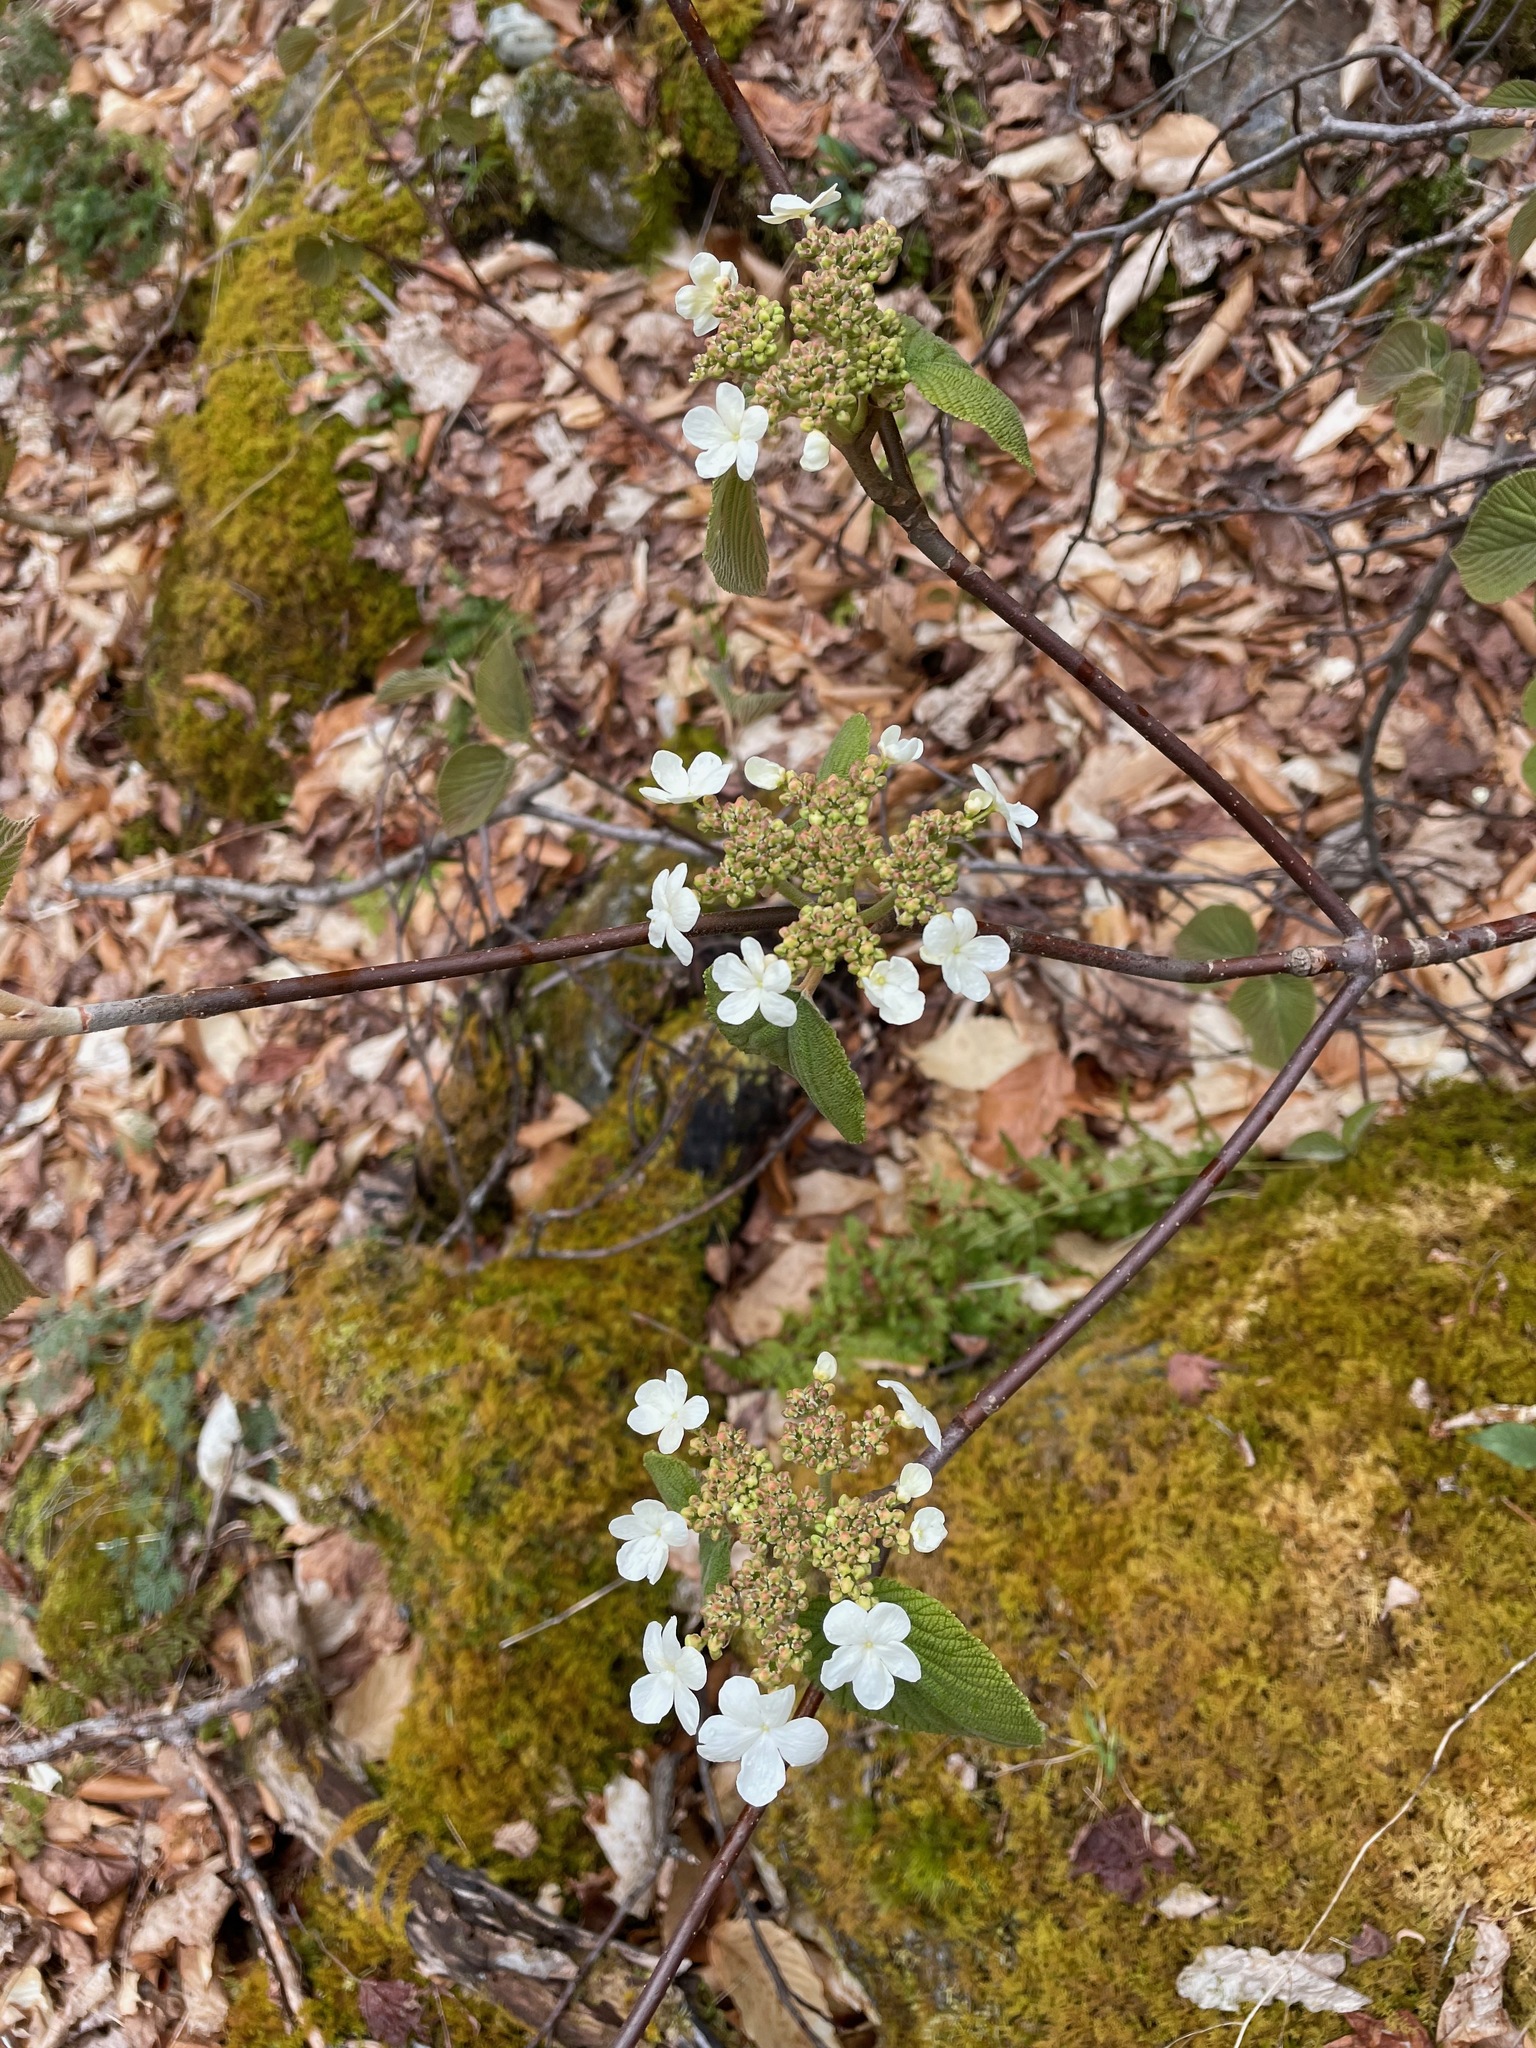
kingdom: Plantae
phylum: Tracheophyta
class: Magnoliopsida
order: Dipsacales
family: Viburnaceae
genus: Viburnum
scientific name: Viburnum lantanoides
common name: Hobblebush
